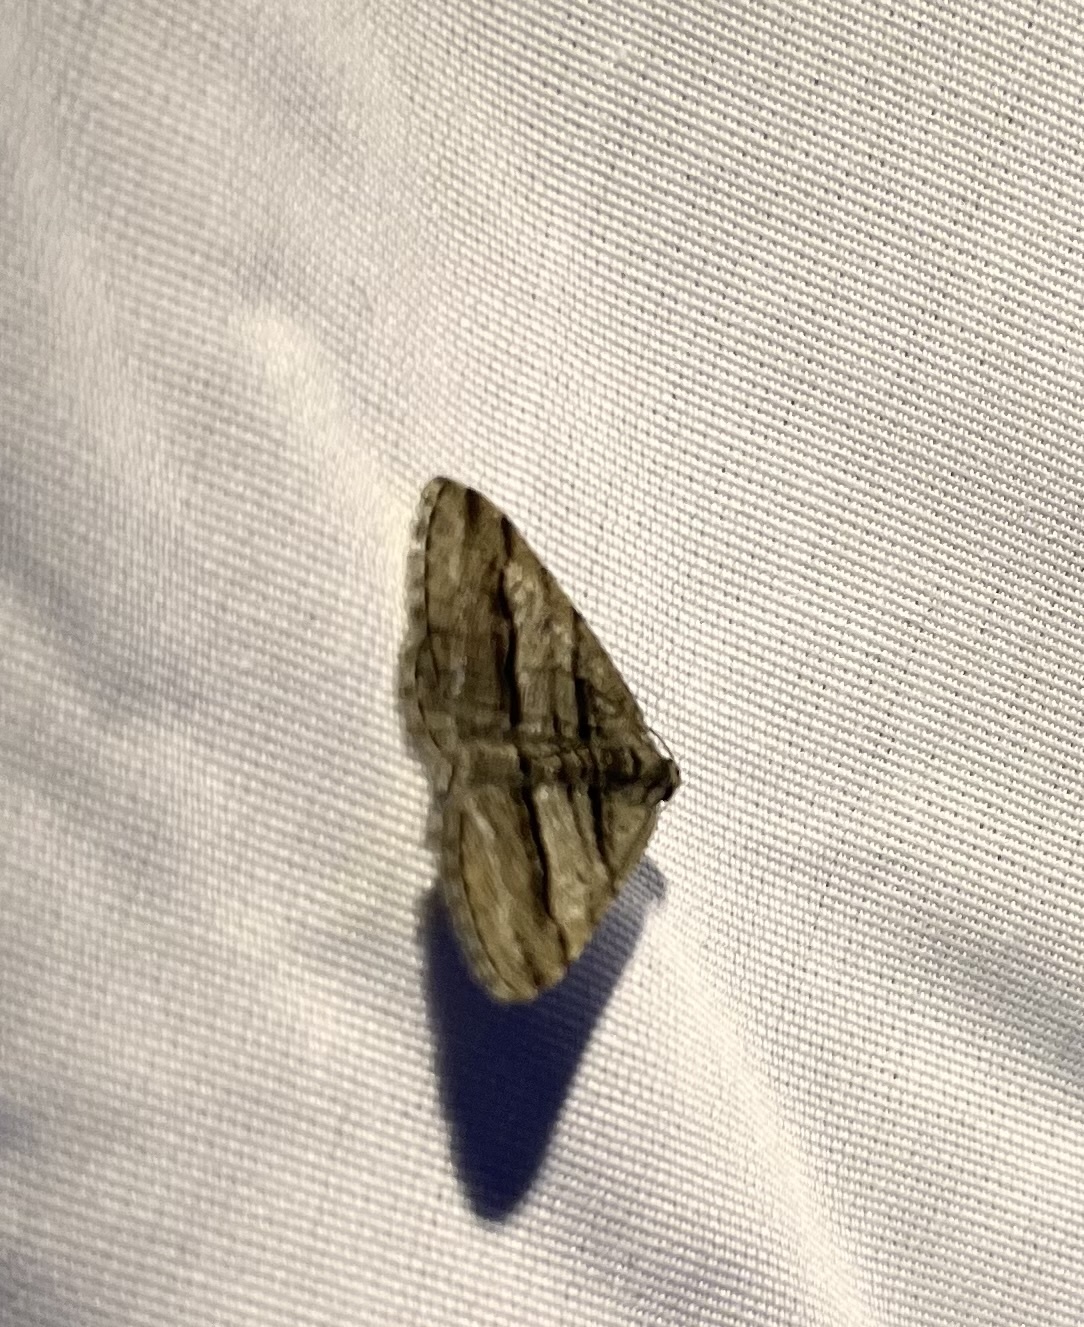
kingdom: Animalia
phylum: Arthropoda
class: Insecta
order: Lepidoptera
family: Geometridae
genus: Digrammia
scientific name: Digrammia atrofasciata
